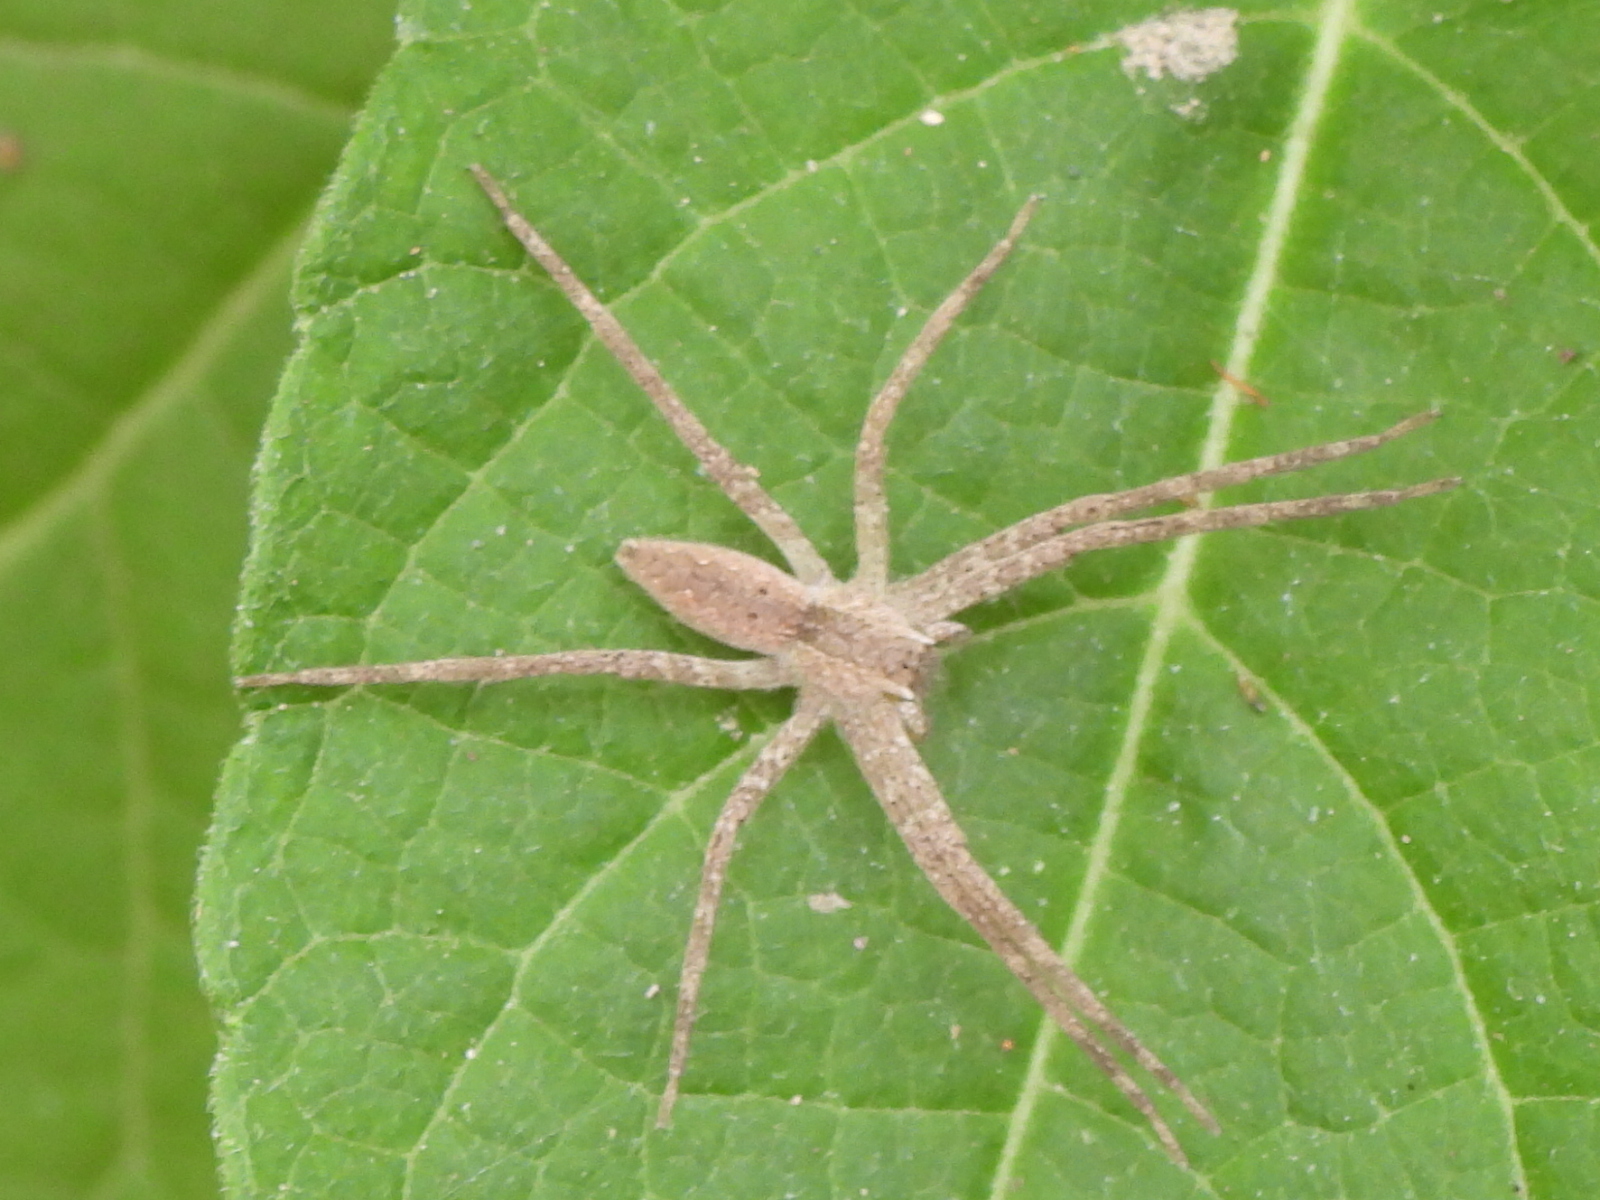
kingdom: Animalia
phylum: Arthropoda
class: Arachnida
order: Araneae
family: Pisauridae
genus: Pisaurina
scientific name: Pisaurina mira
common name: American nursery web spider
